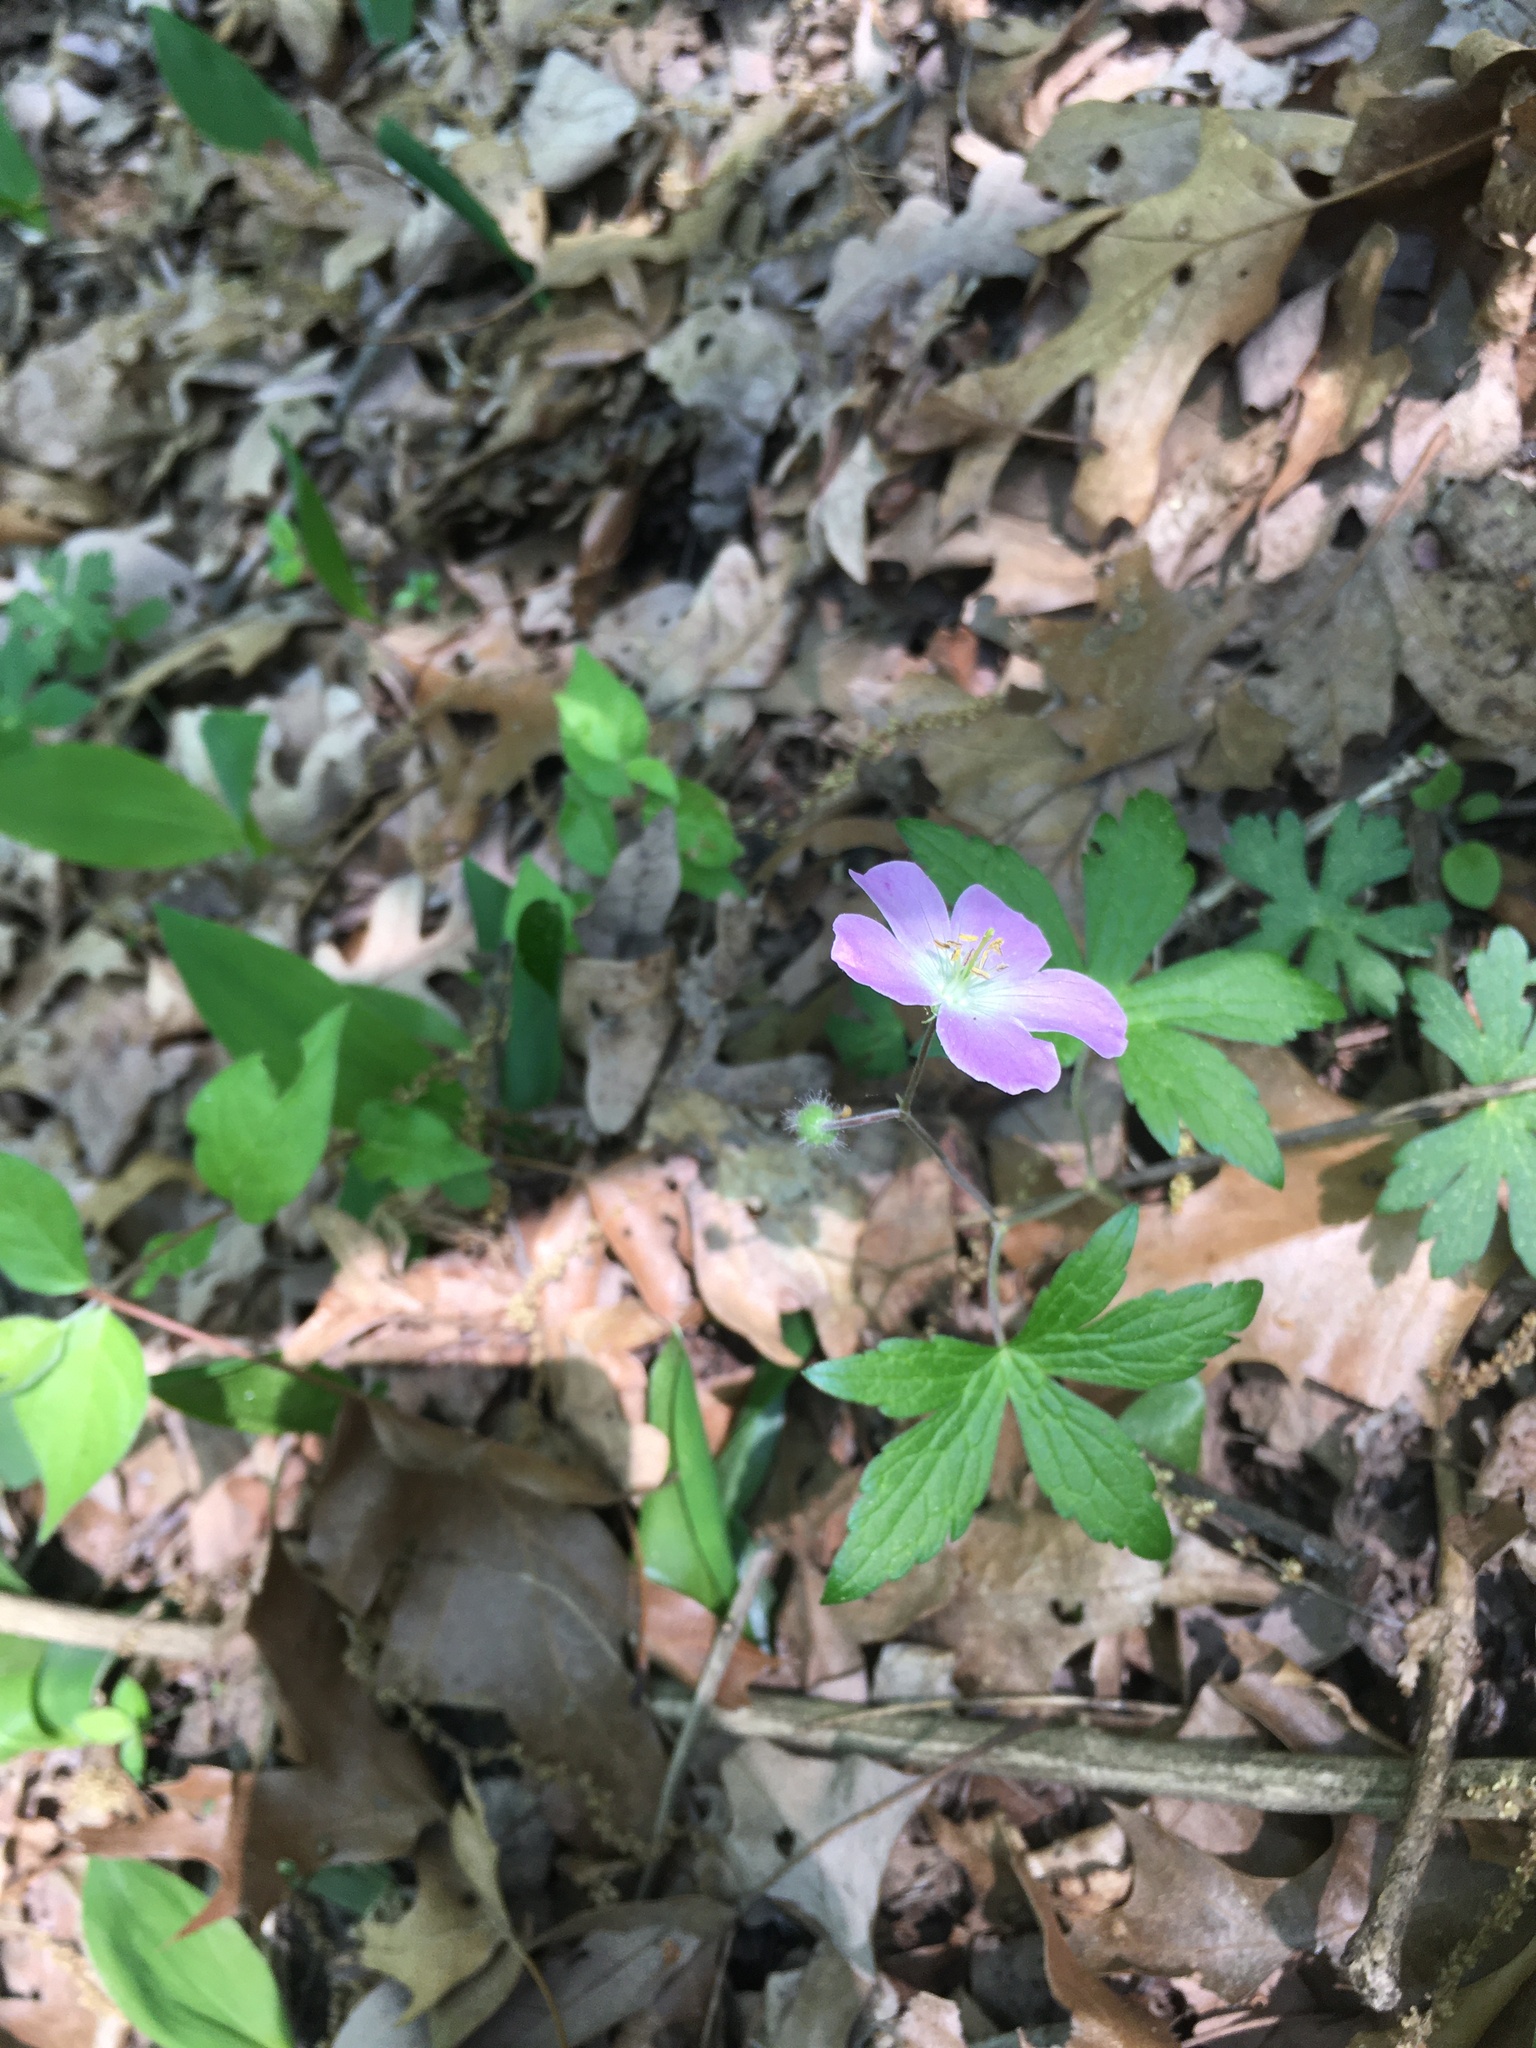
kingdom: Plantae
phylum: Tracheophyta
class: Magnoliopsida
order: Geraniales
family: Geraniaceae
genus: Geranium
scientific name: Geranium maculatum
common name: Spotted geranium
